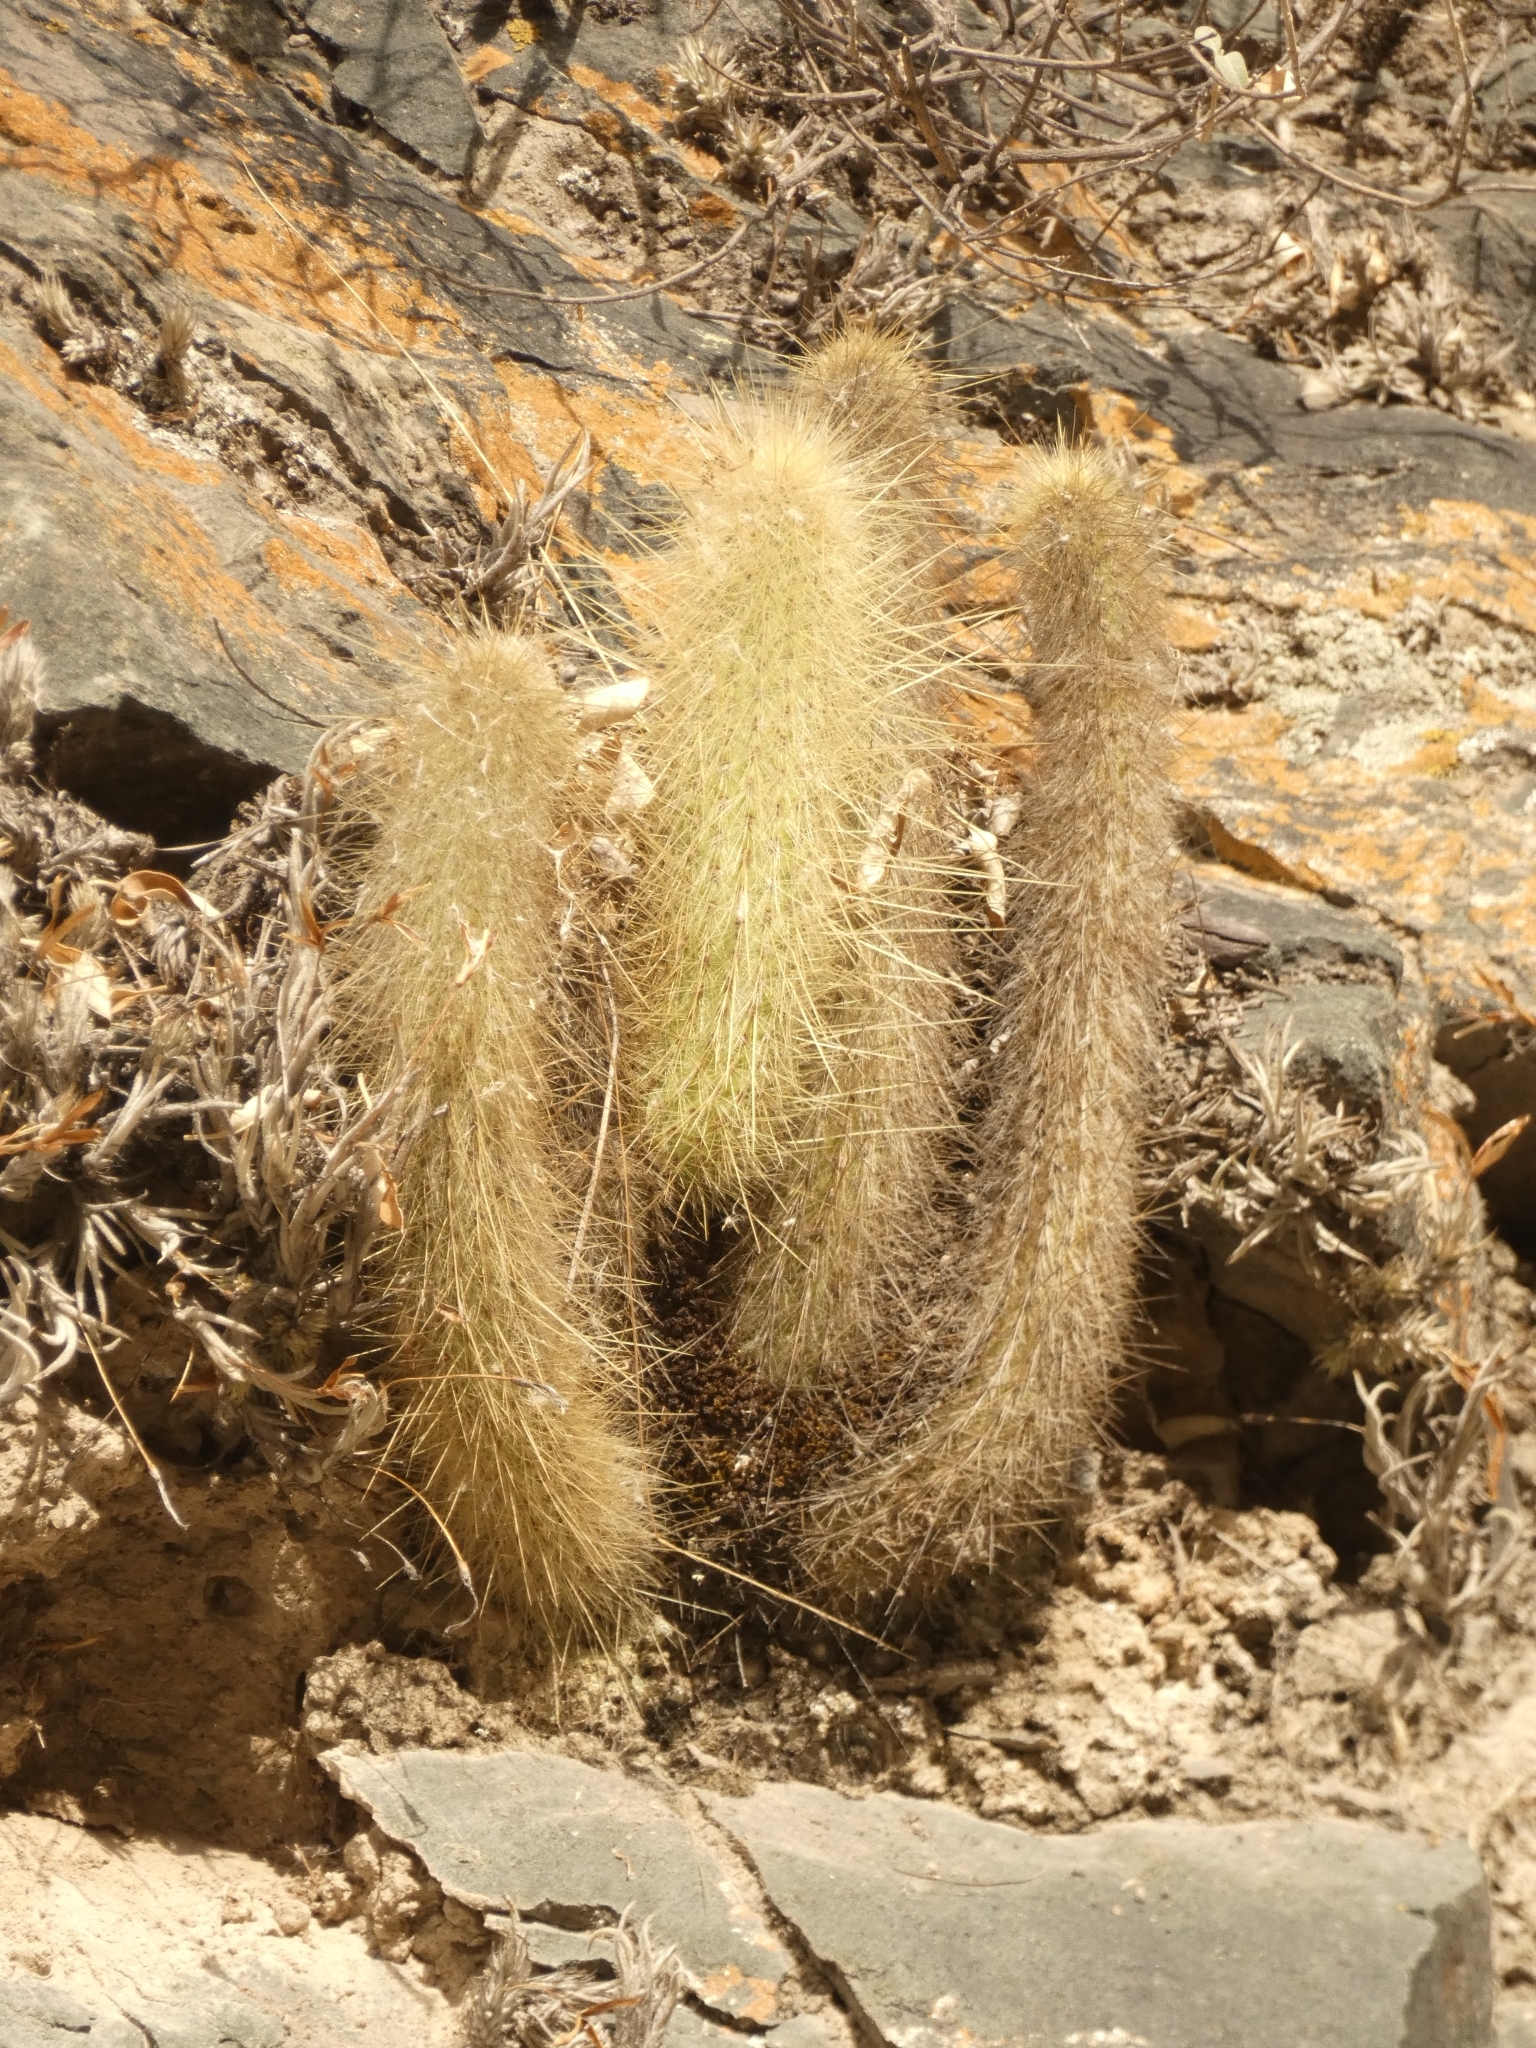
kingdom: Plantae
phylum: Tracheophyta
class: Magnoliopsida
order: Caryophyllales
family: Cactaceae
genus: Cleistocactus
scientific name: Cleistocactus hyalacanthus
